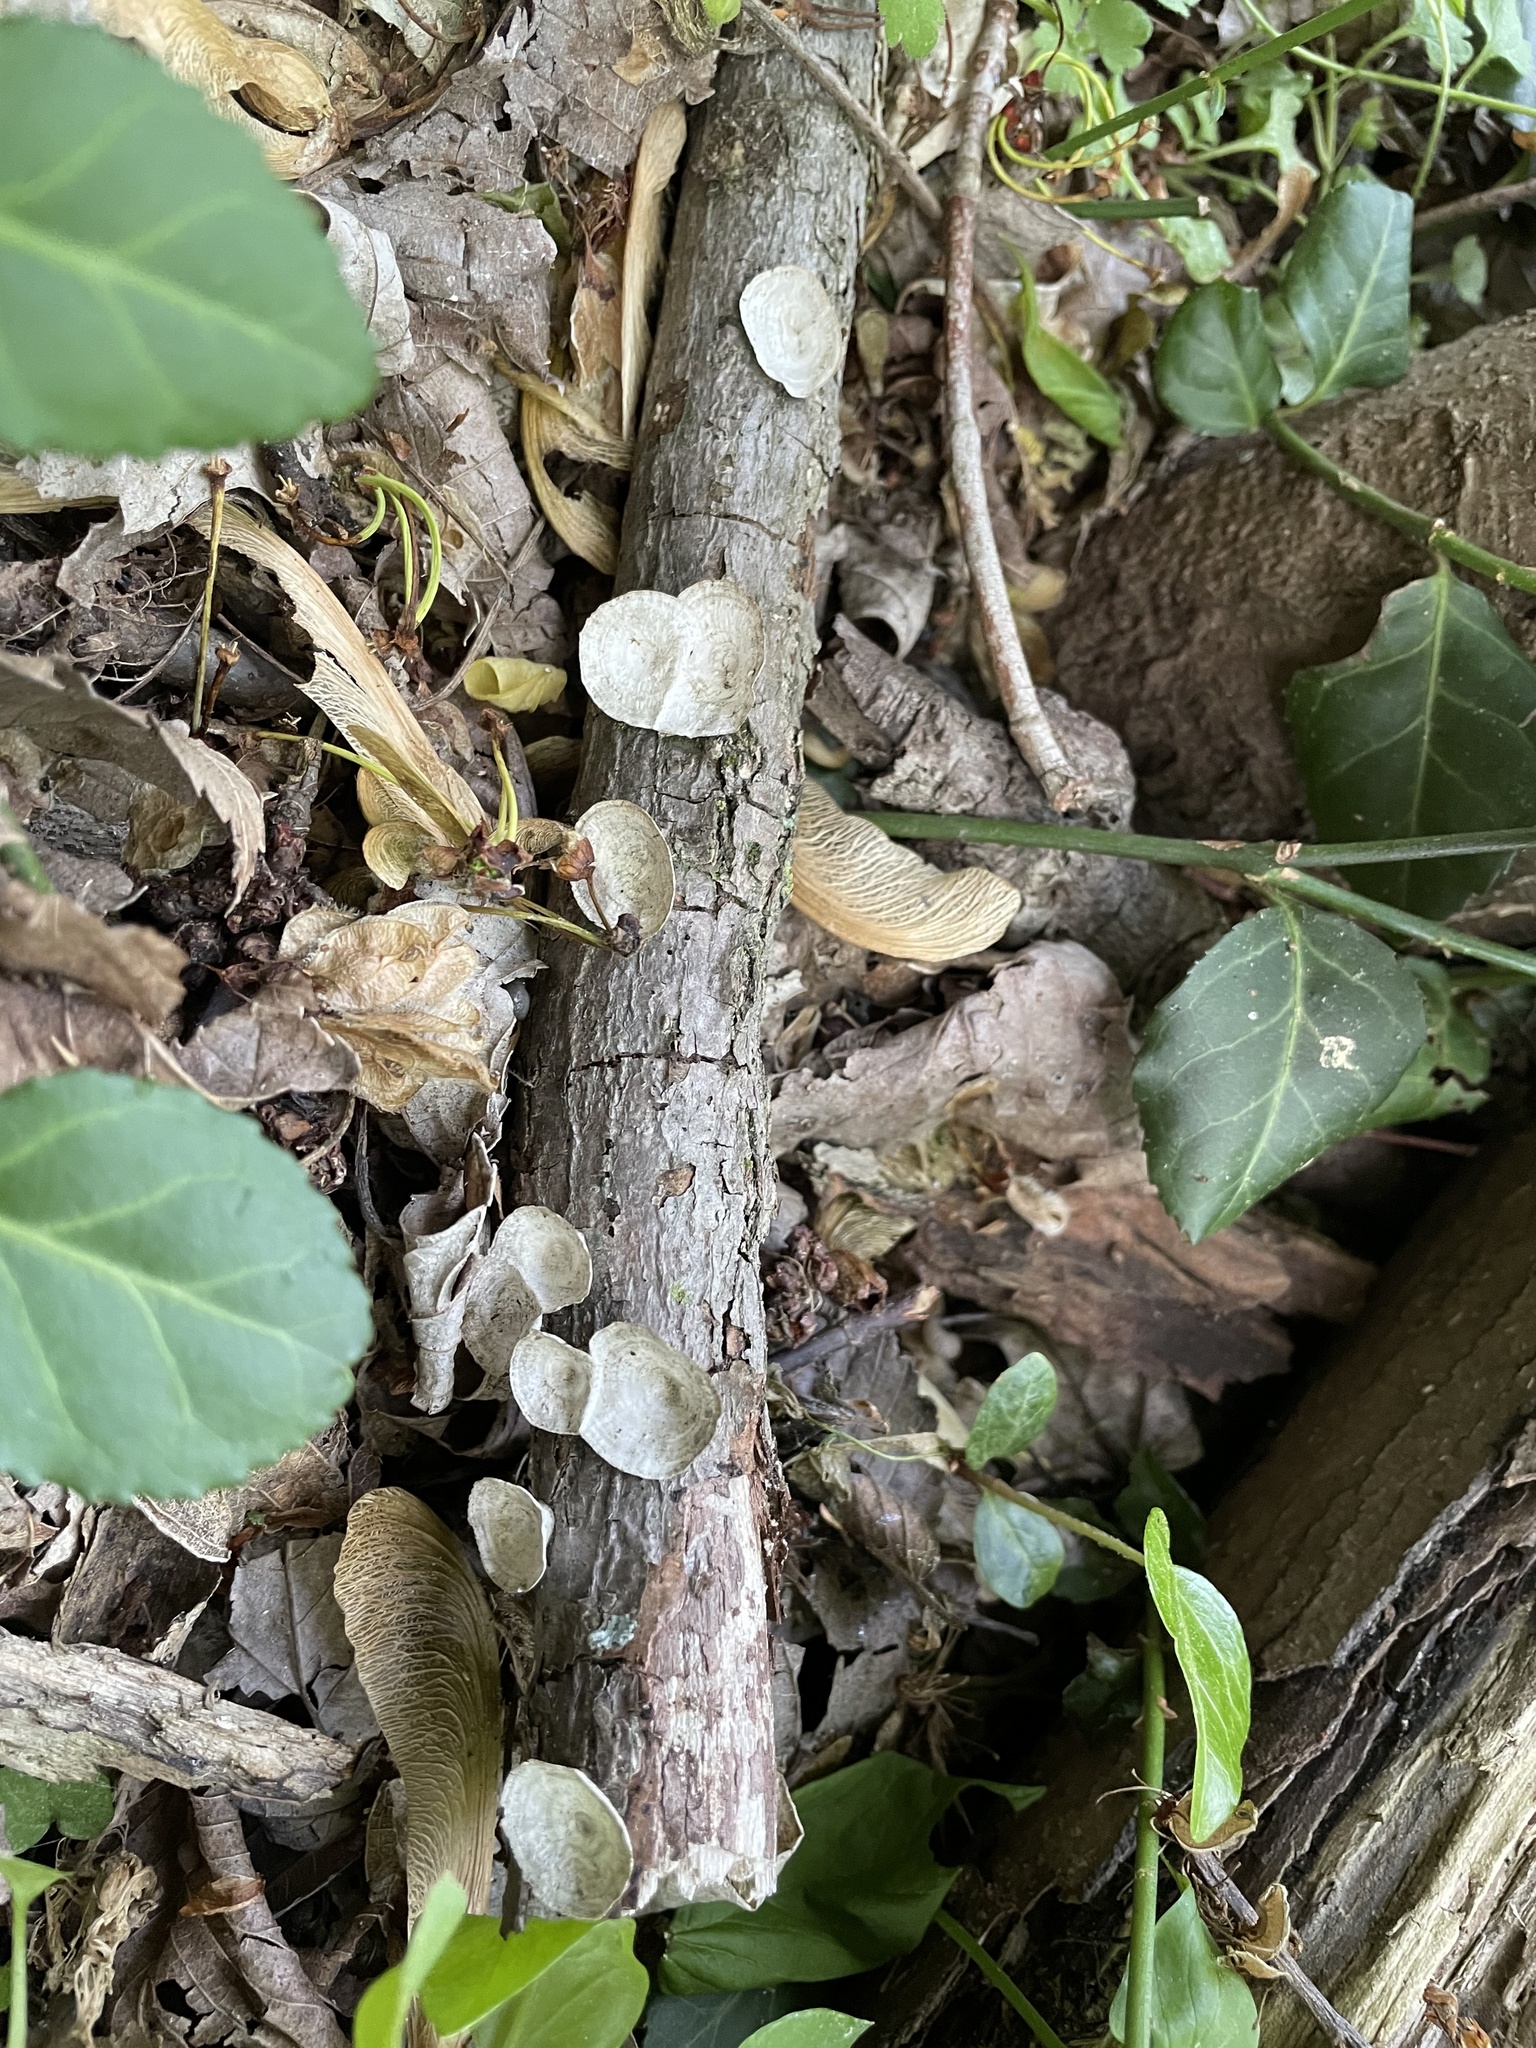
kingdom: Fungi
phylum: Basidiomycota
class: Agaricomycetes
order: Polyporales
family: Polyporaceae
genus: Poronidulus
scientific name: Poronidulus conchifer
